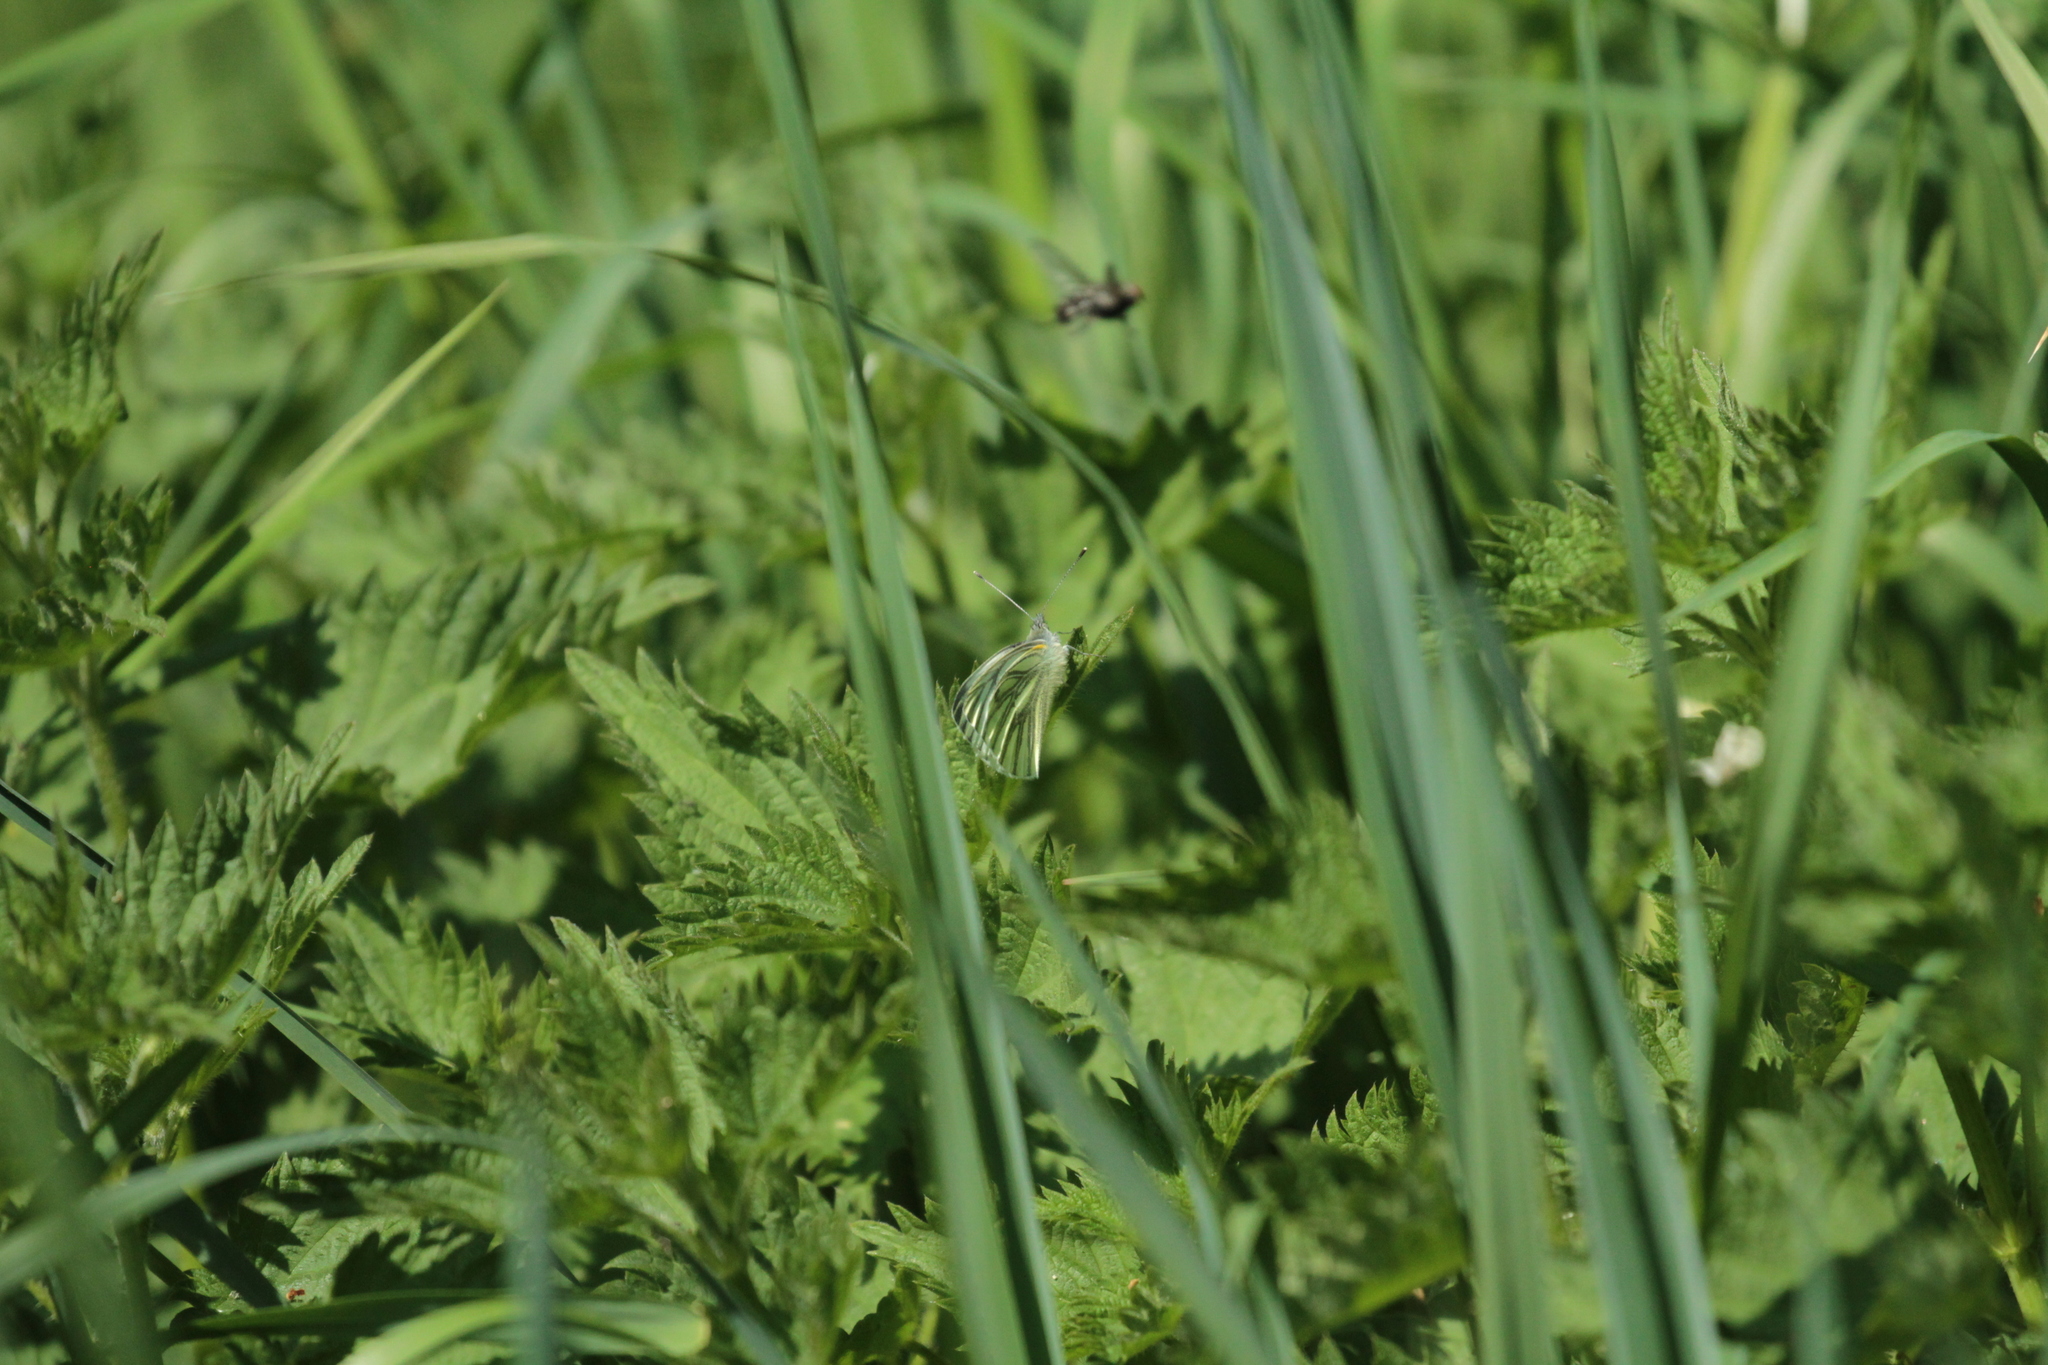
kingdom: Animalia
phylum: Arthropoda
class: Insecta
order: Lepidoptera
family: Pieridae
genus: Pieris
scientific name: Pieris napi
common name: Green-veined white
